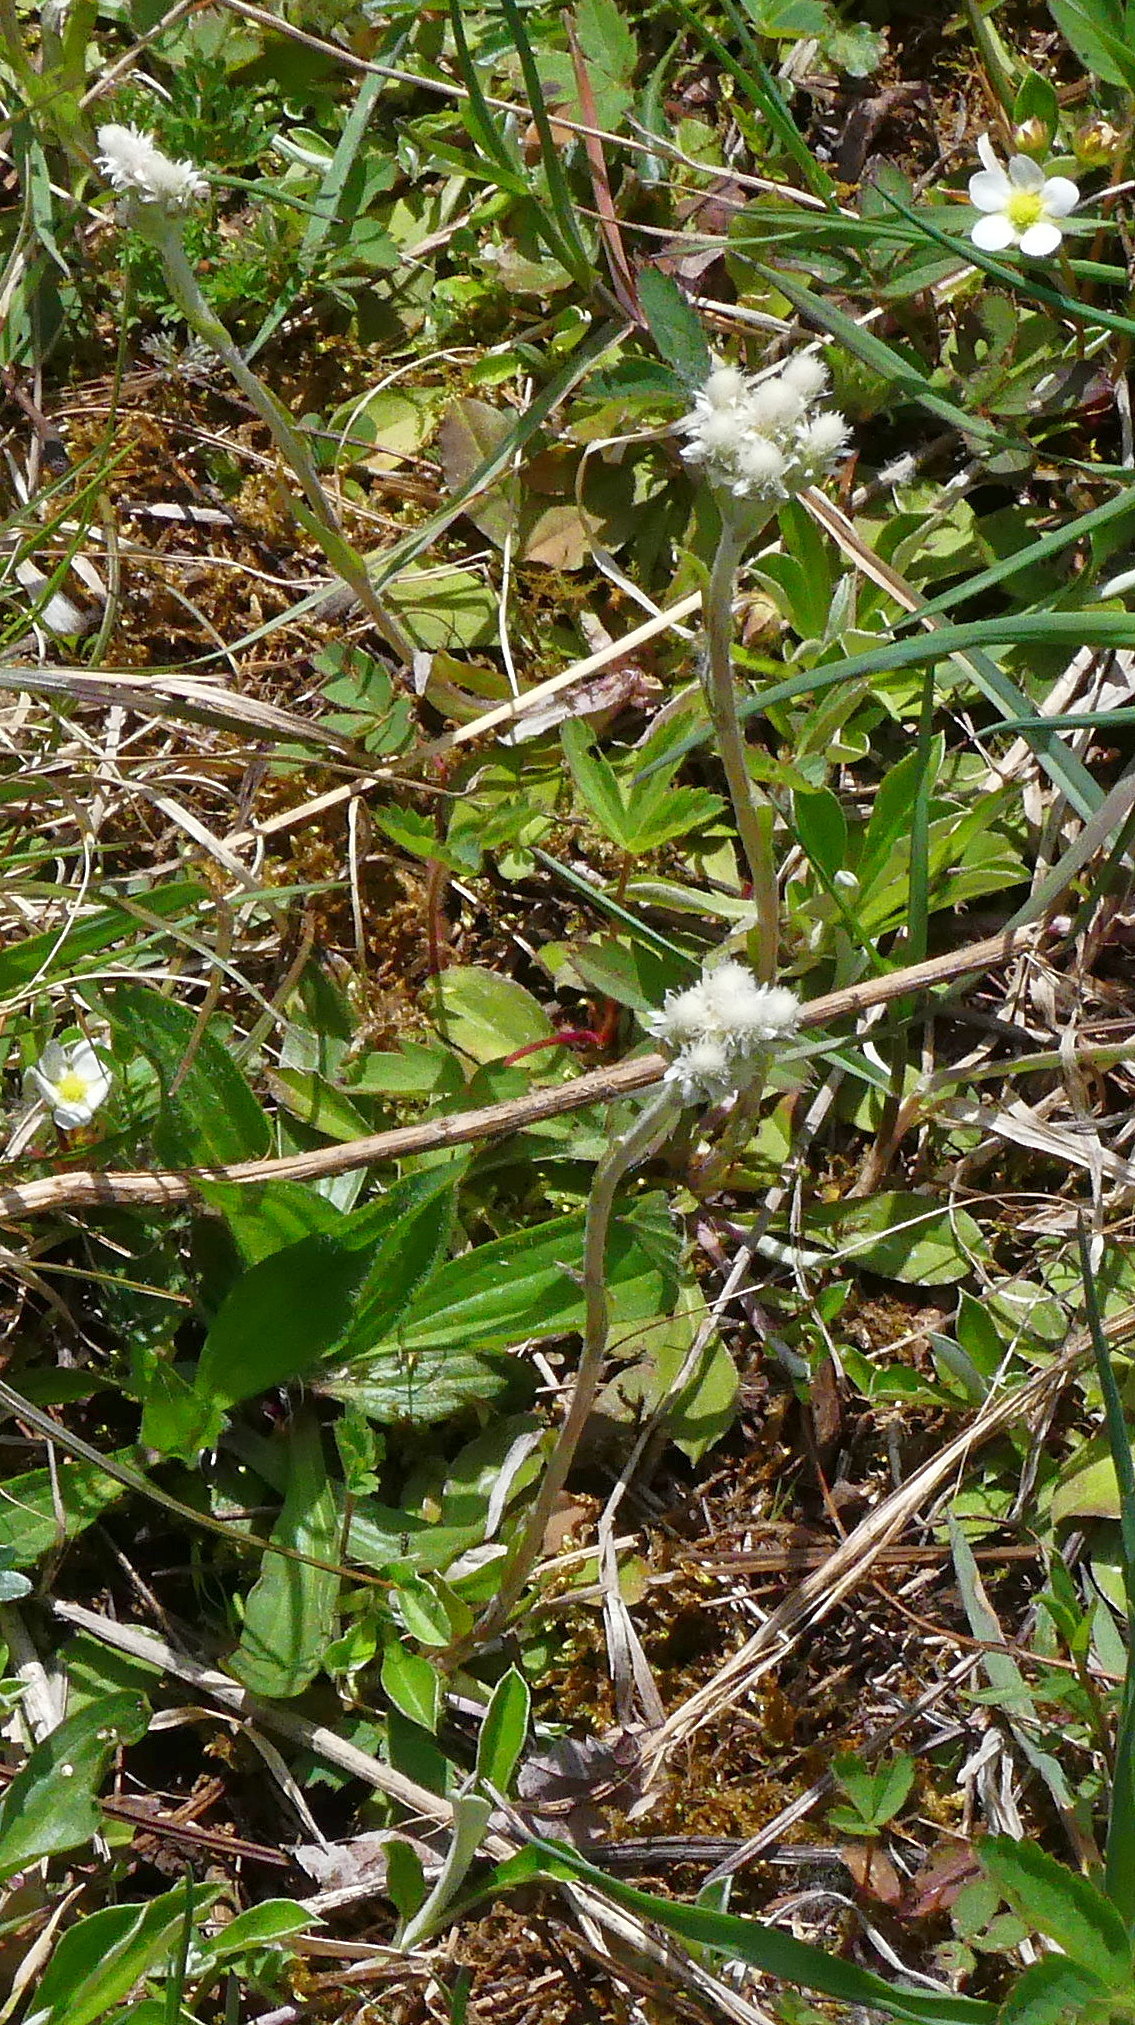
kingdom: Plantae
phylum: Tracheophyta
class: Magnoliopsida
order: Asterales
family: Asteraceae
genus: Antennaria
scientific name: Antennaria howellii
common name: Howell's pussytoes
